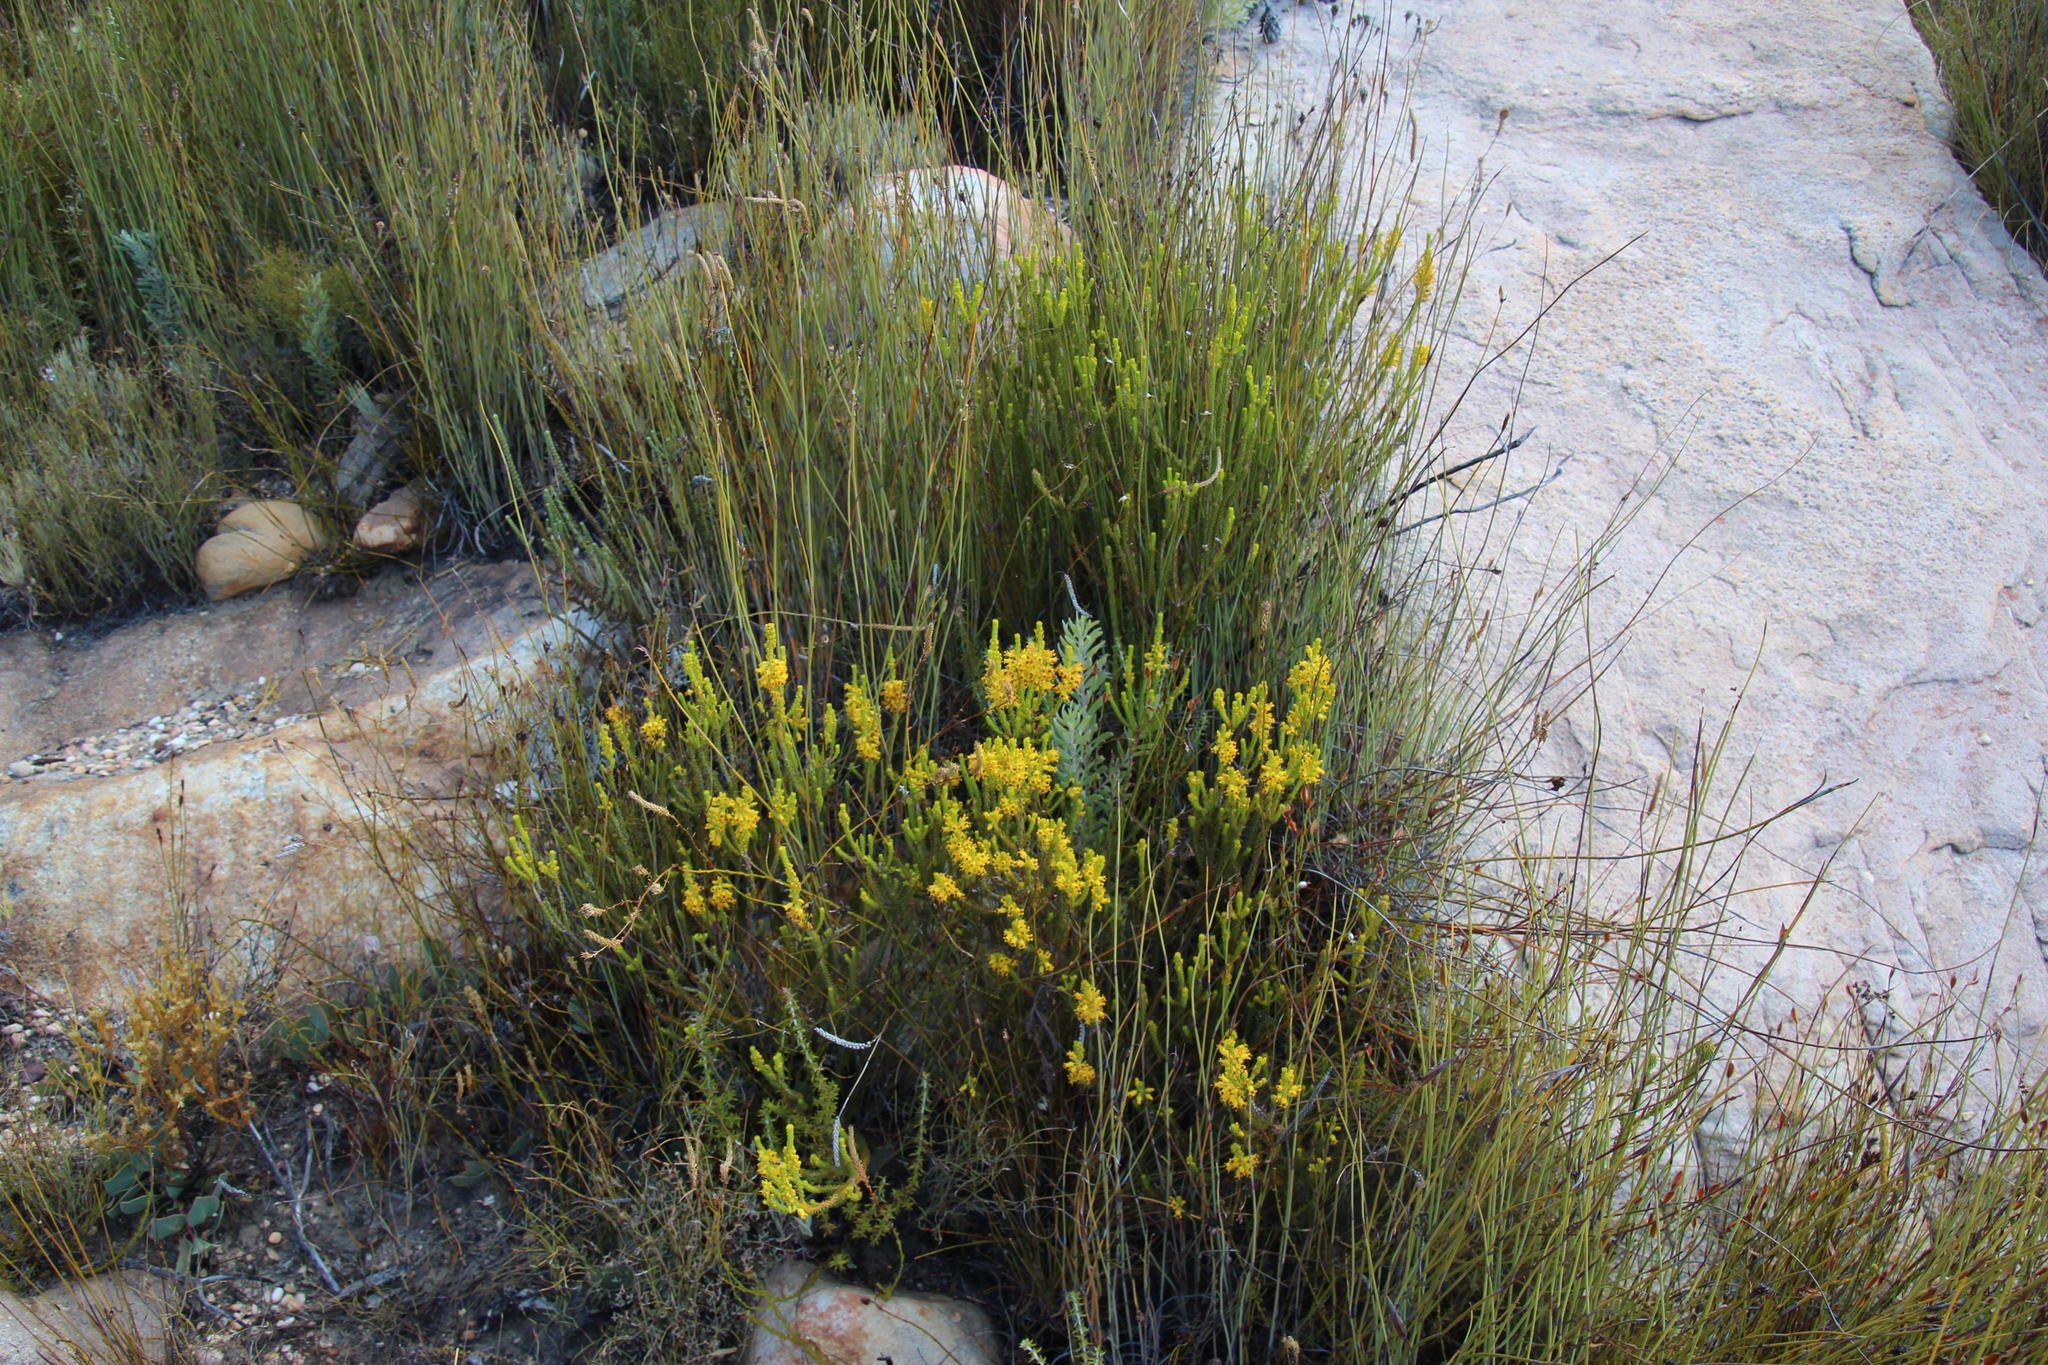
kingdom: Plantae
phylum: Tracheophyta
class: Magnoliopsida
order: Ericales
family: Ericaceae
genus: Erica
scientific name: Erica parilis
